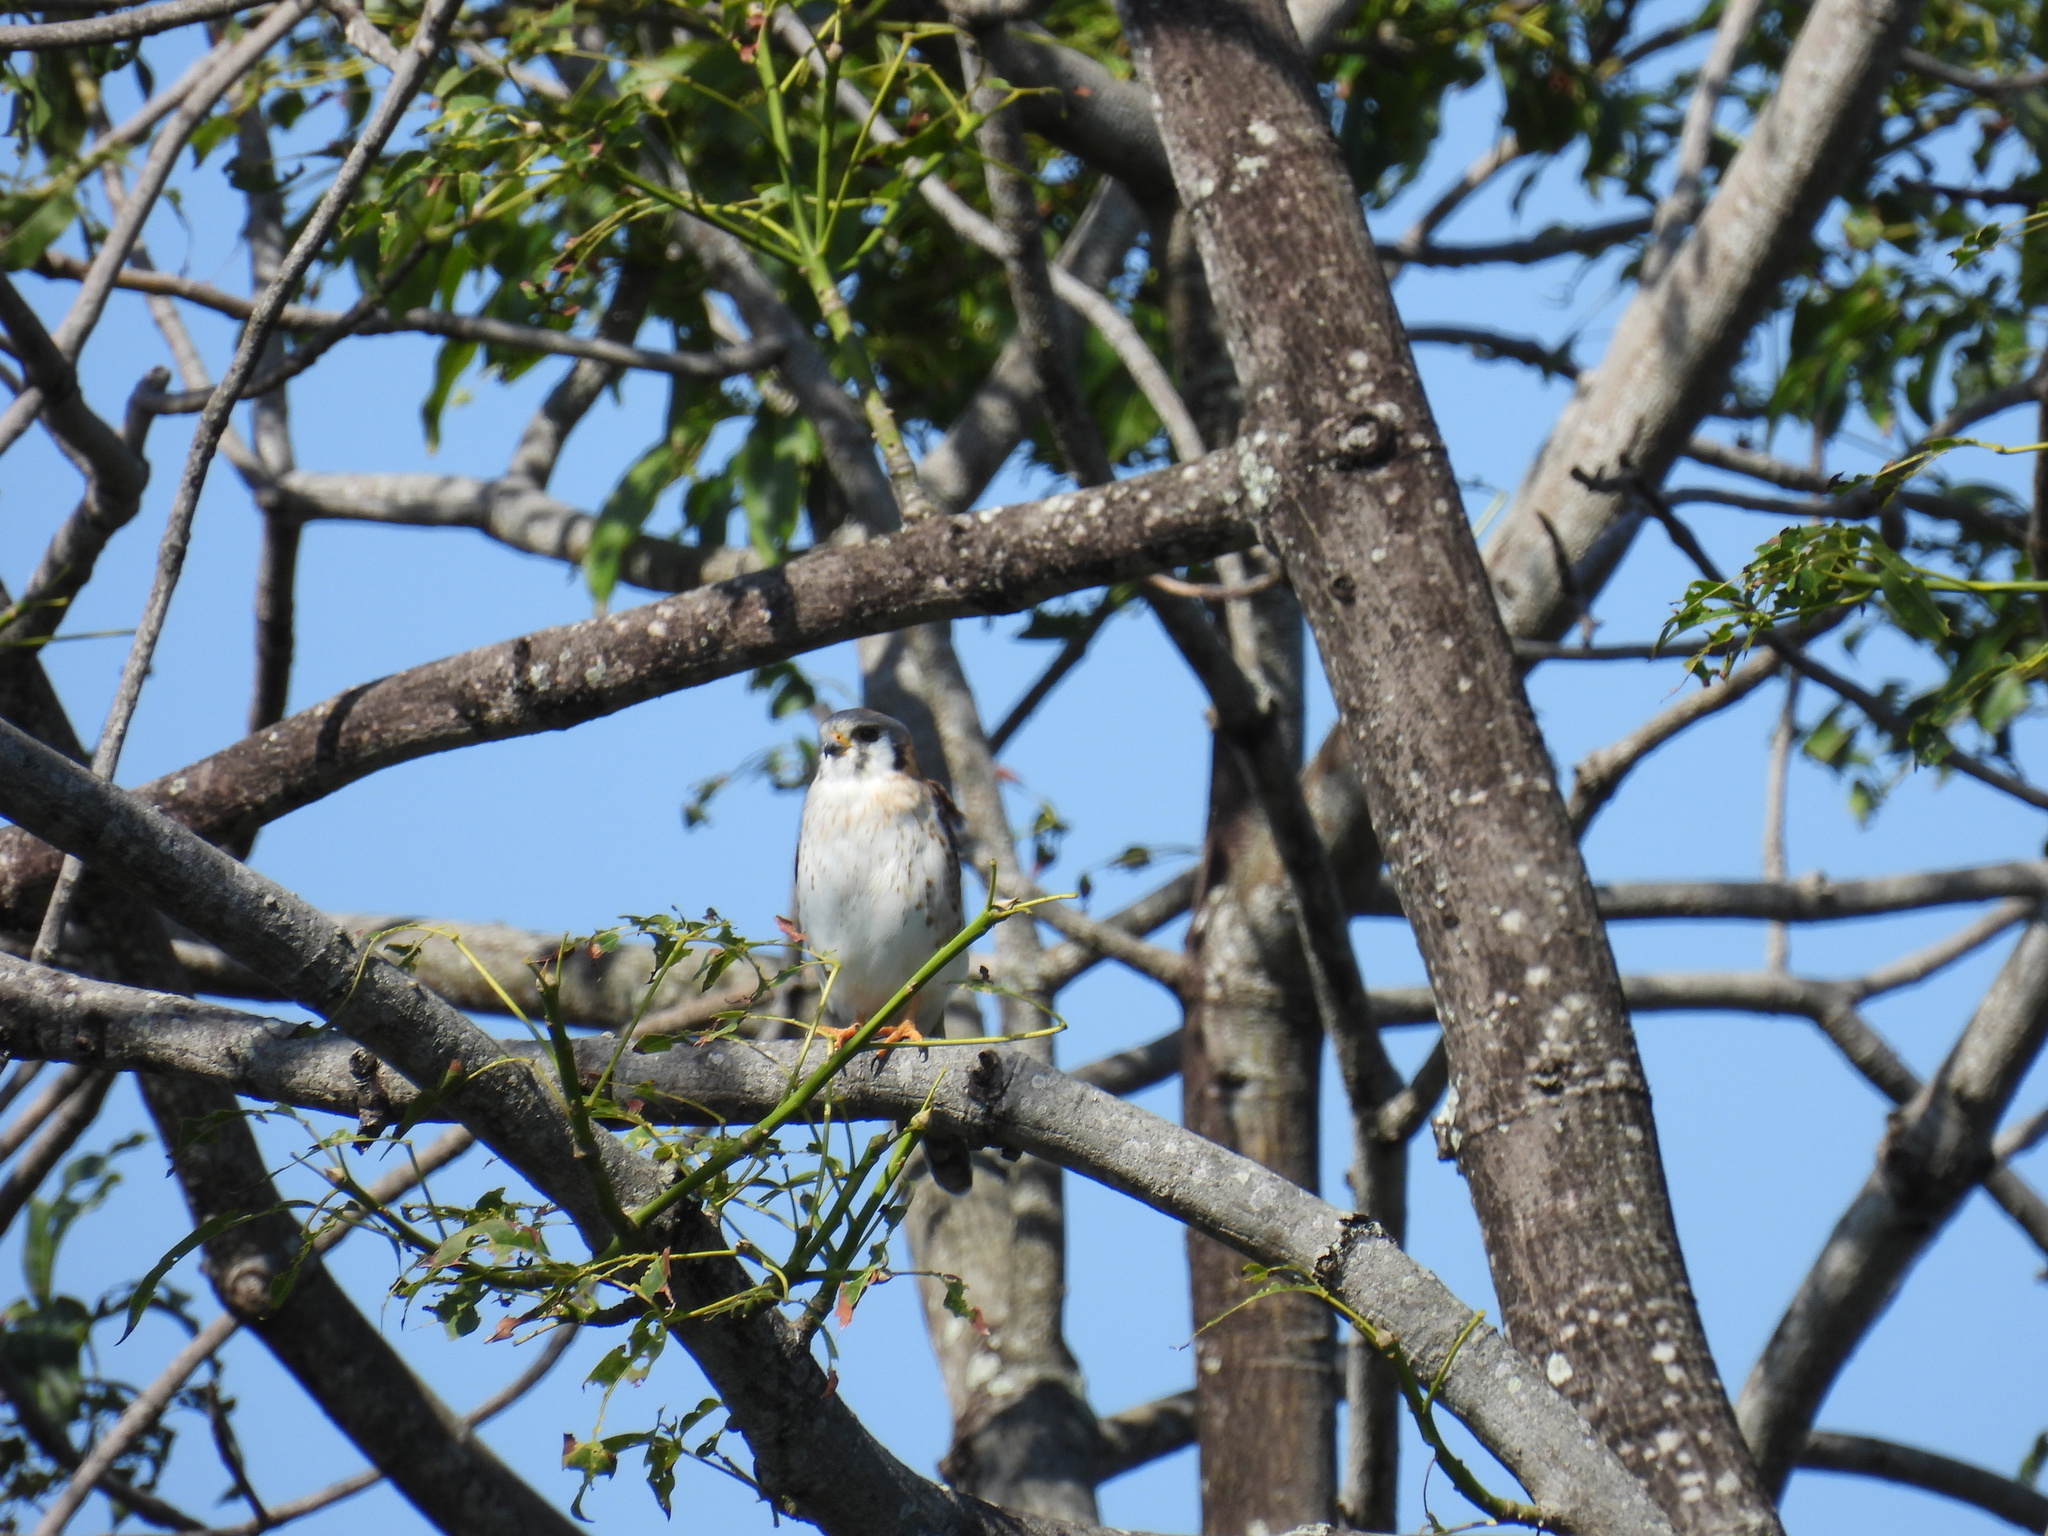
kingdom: Animalia
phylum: Chordata
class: Aves
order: Falconiformes
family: Falconidae
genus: Falco
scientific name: Falco sparverius
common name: American kestrel
